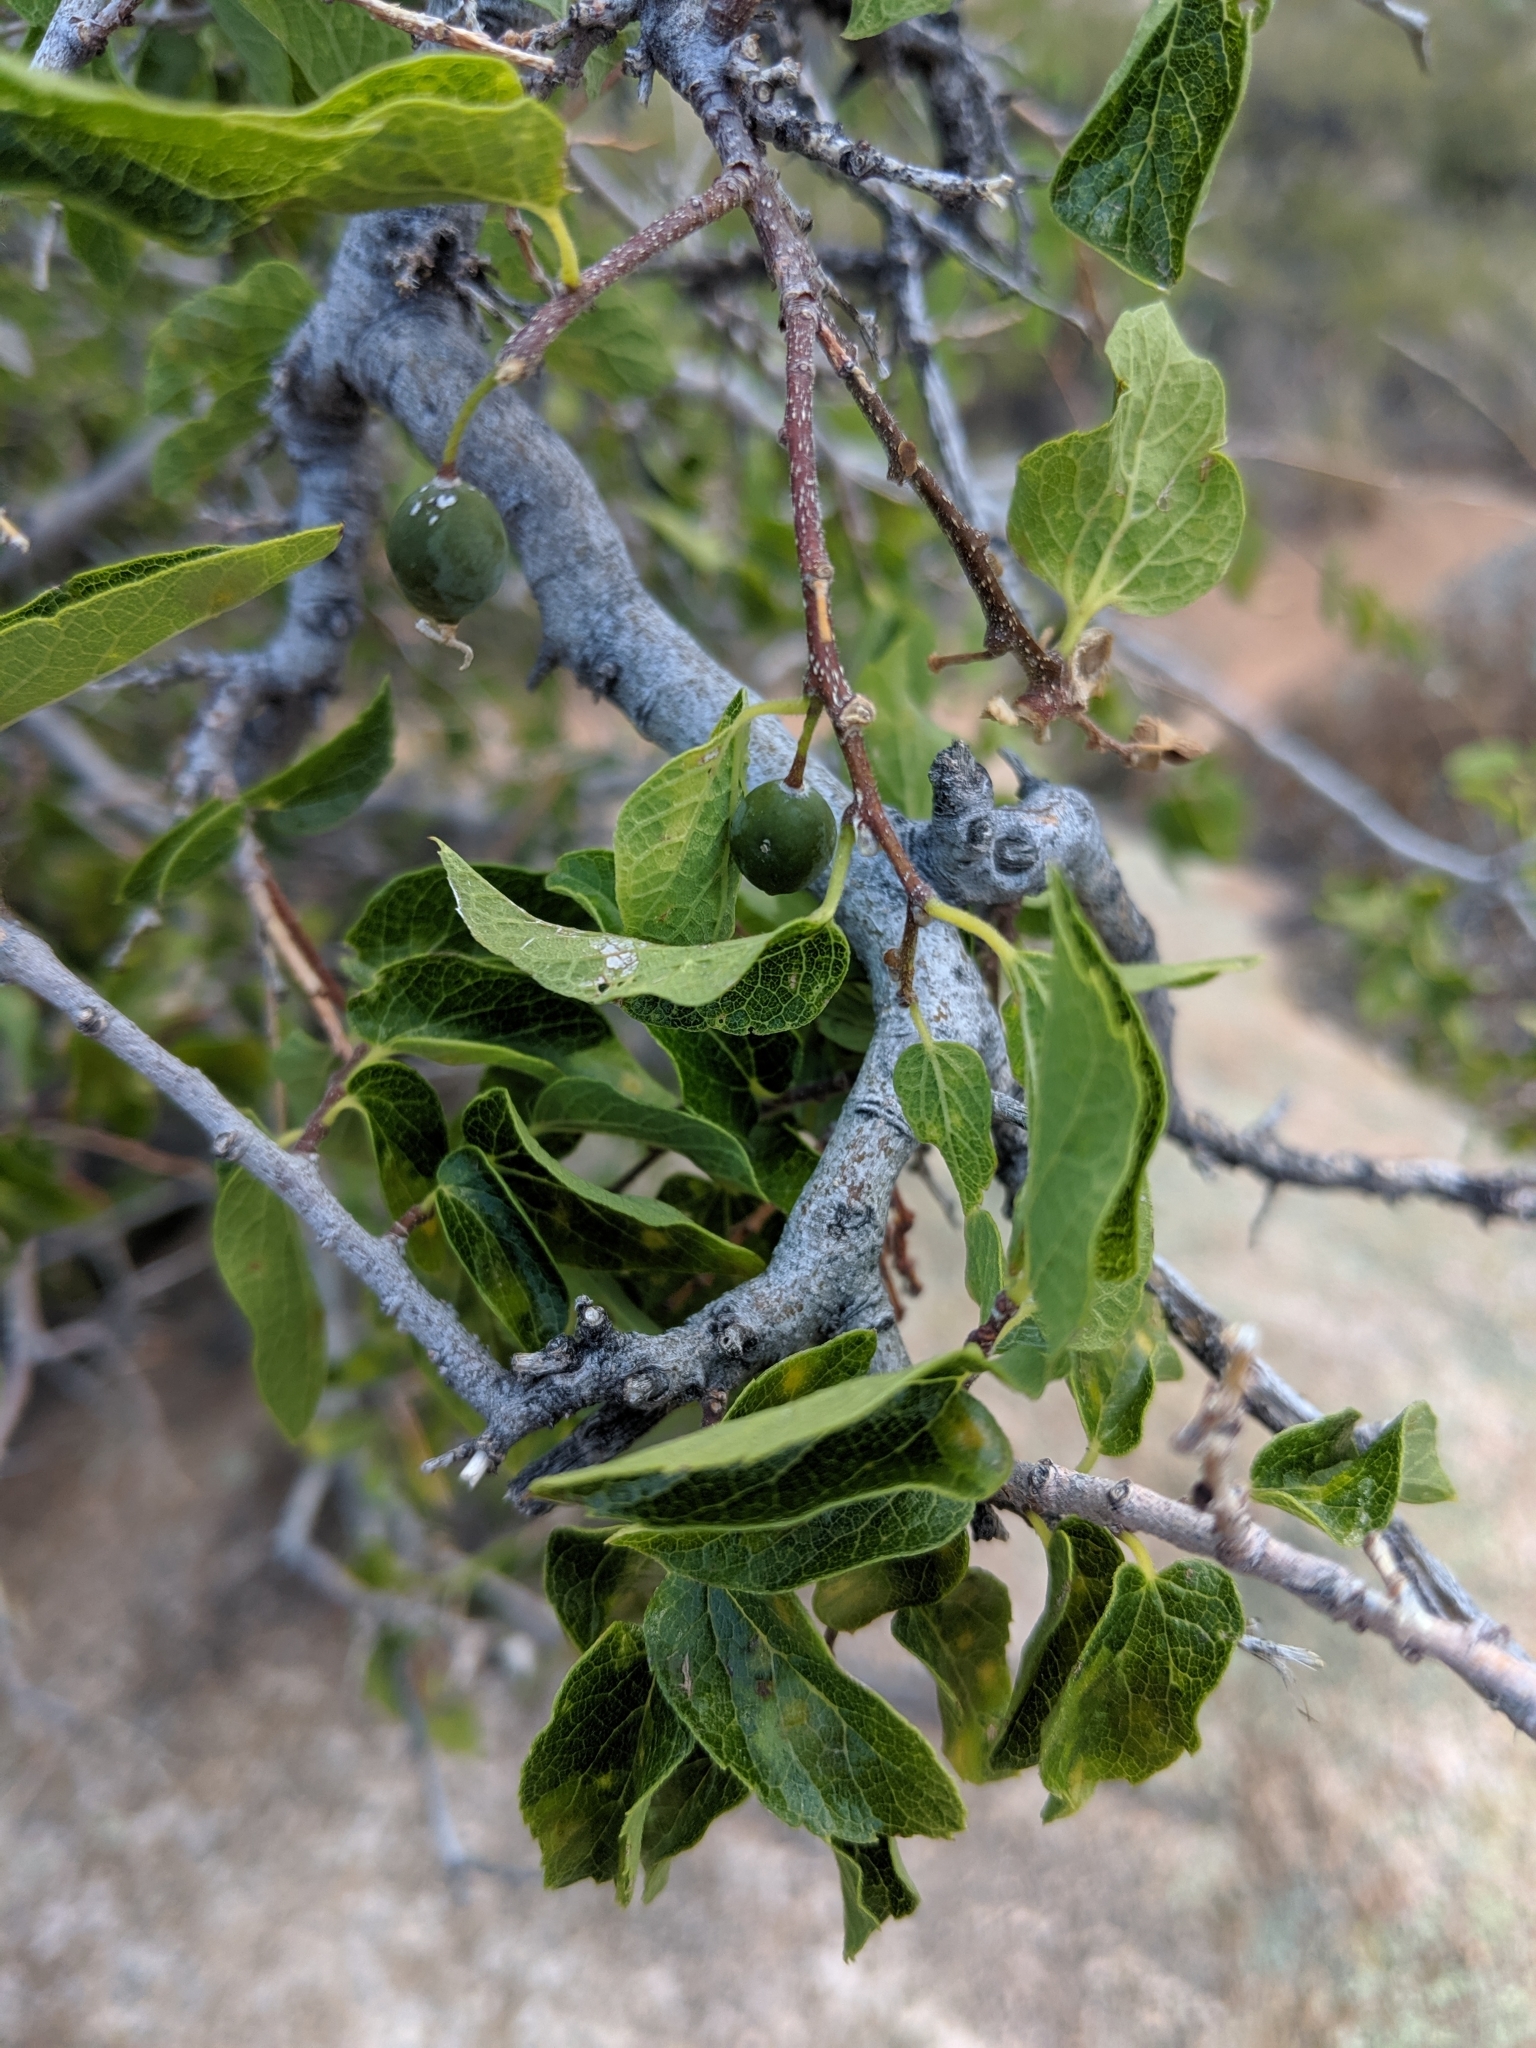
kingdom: Plantae
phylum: Tracheophyta
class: Magnoliopsida
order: Rosales
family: Cannabaceae
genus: Celtis
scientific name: Celtis reticulata
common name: Netleaf hackberry
